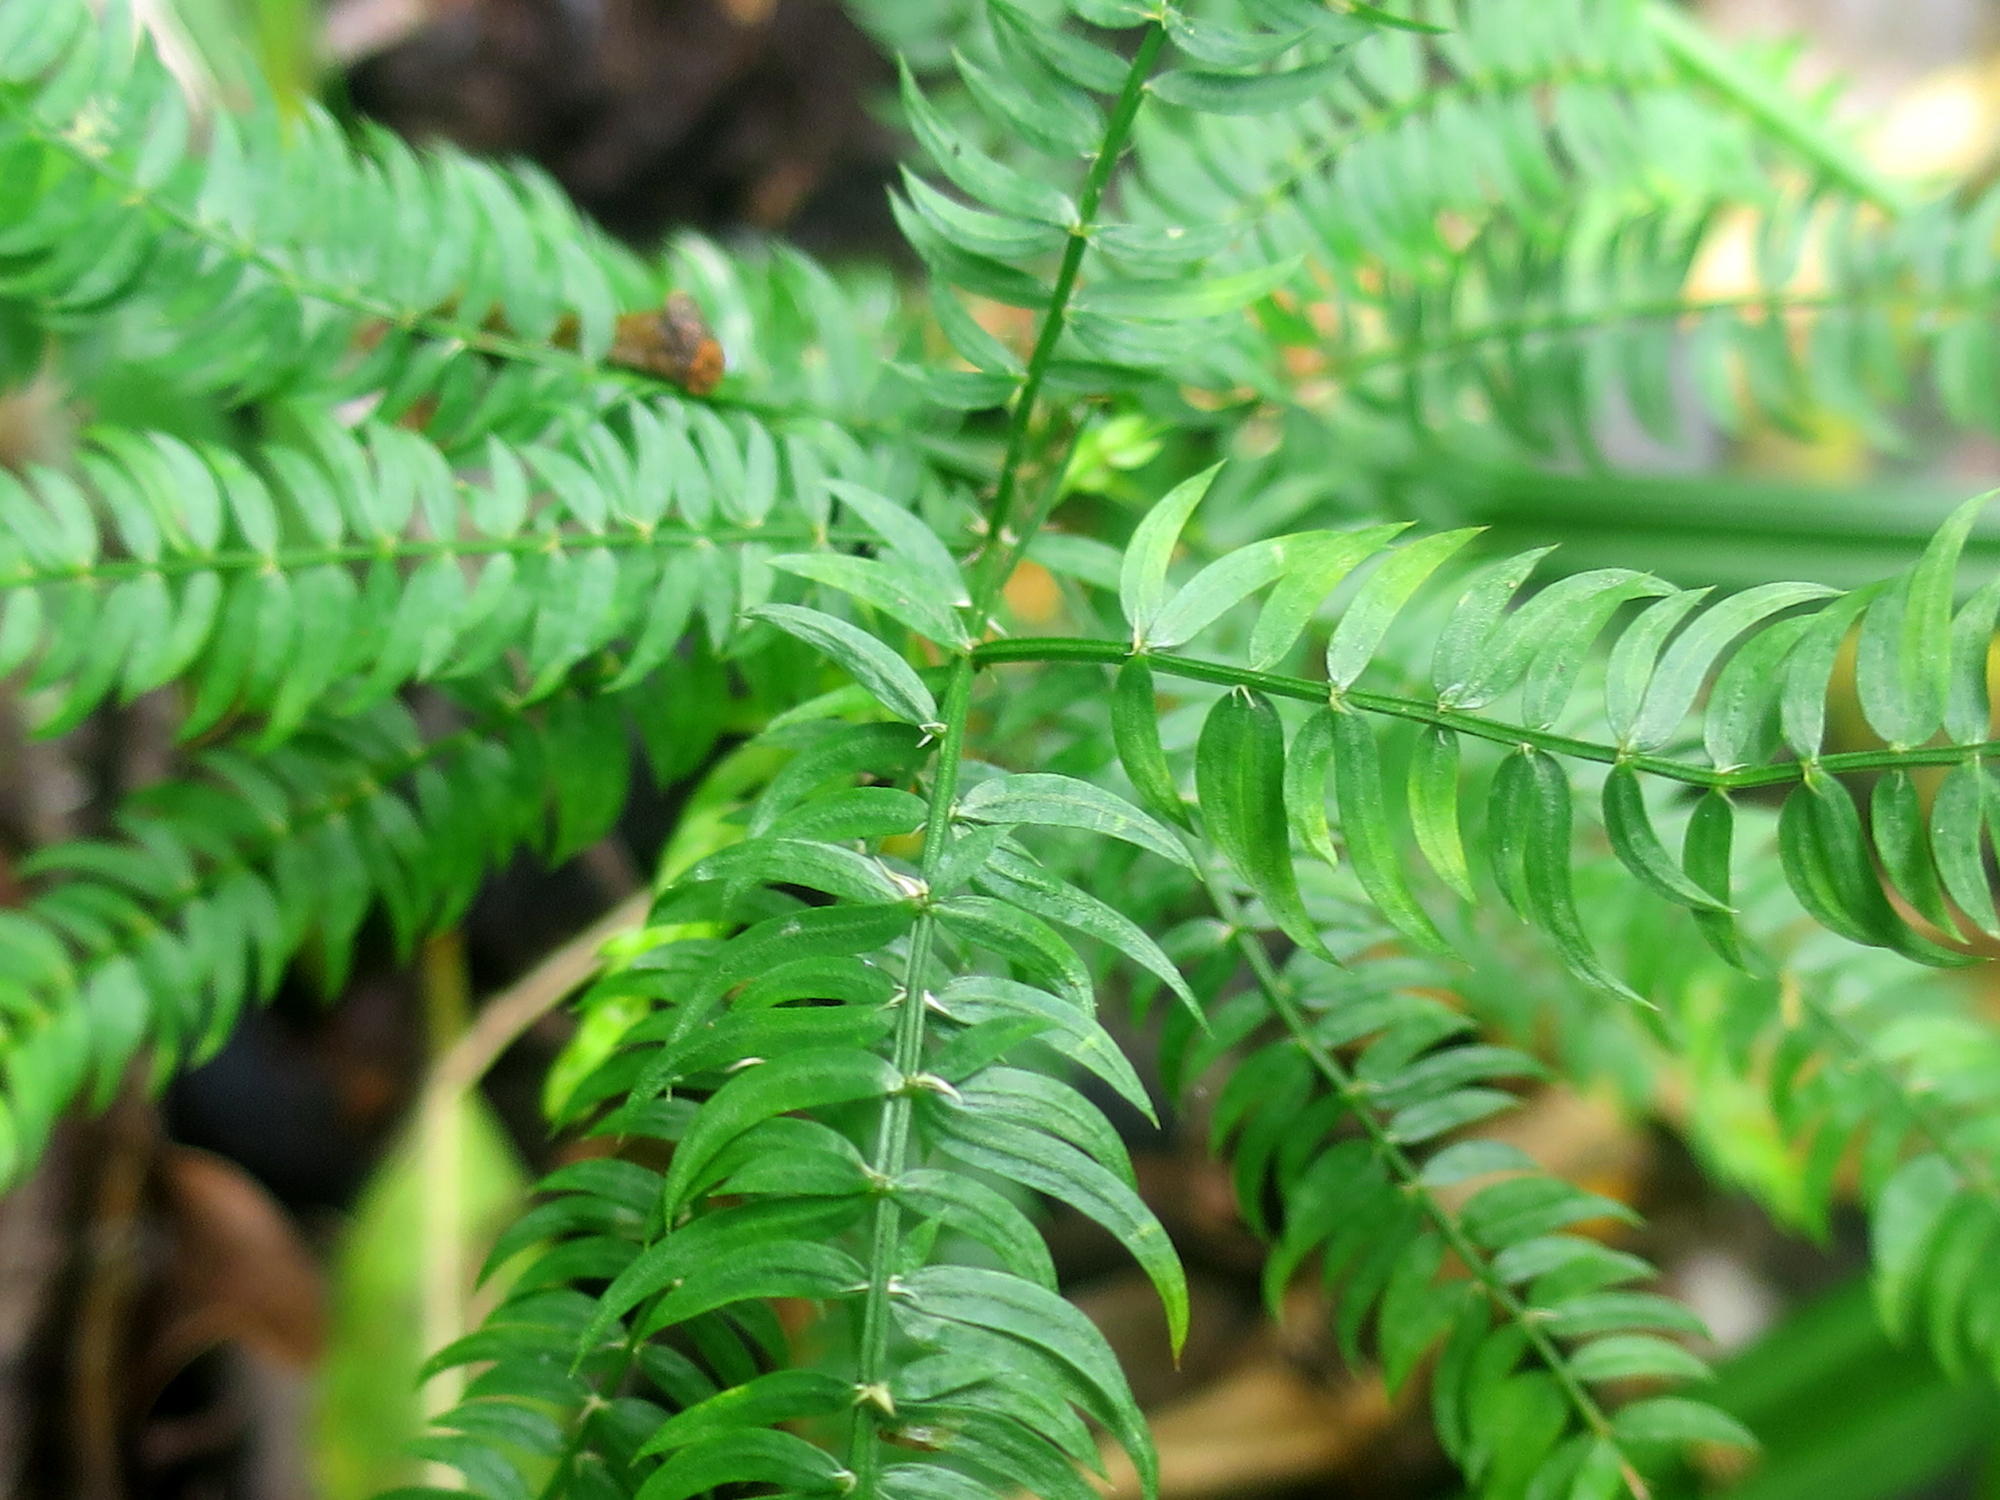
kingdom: Plantae
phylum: Tracheophyta
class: Liliopsida
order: Asparagales
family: Asparagaceae
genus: Asparagus
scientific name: Asparagus scandens
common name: Asparagus-fern
